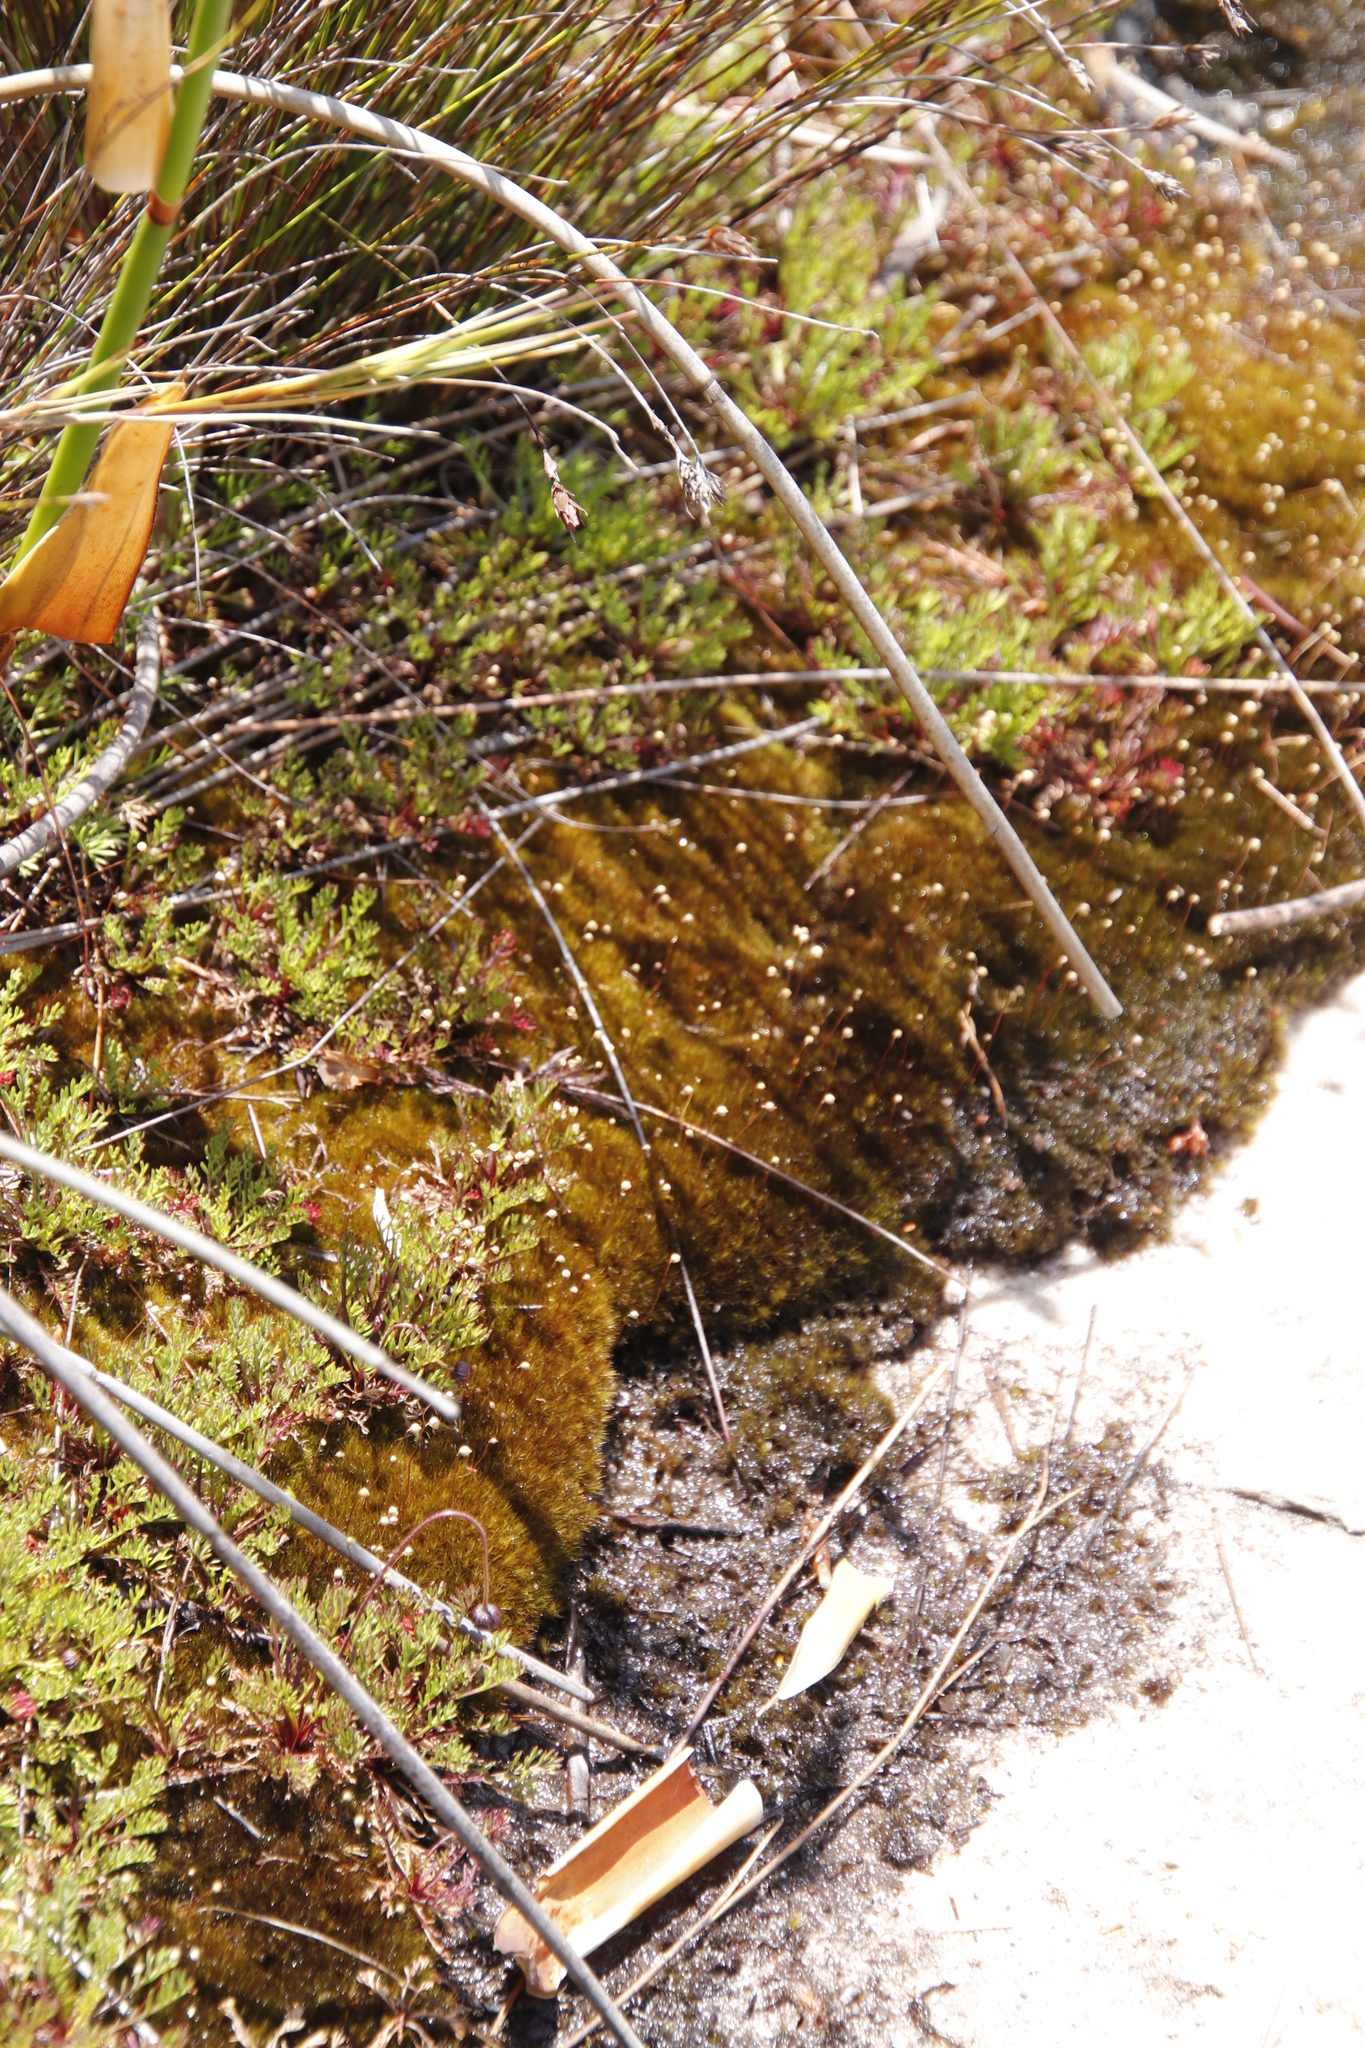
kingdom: Plantae
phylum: Tracheophyta
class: Magnoliopsida
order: Lamiales
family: Lentibulariaceae
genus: Utricularia
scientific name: Utricularia bisquamata
